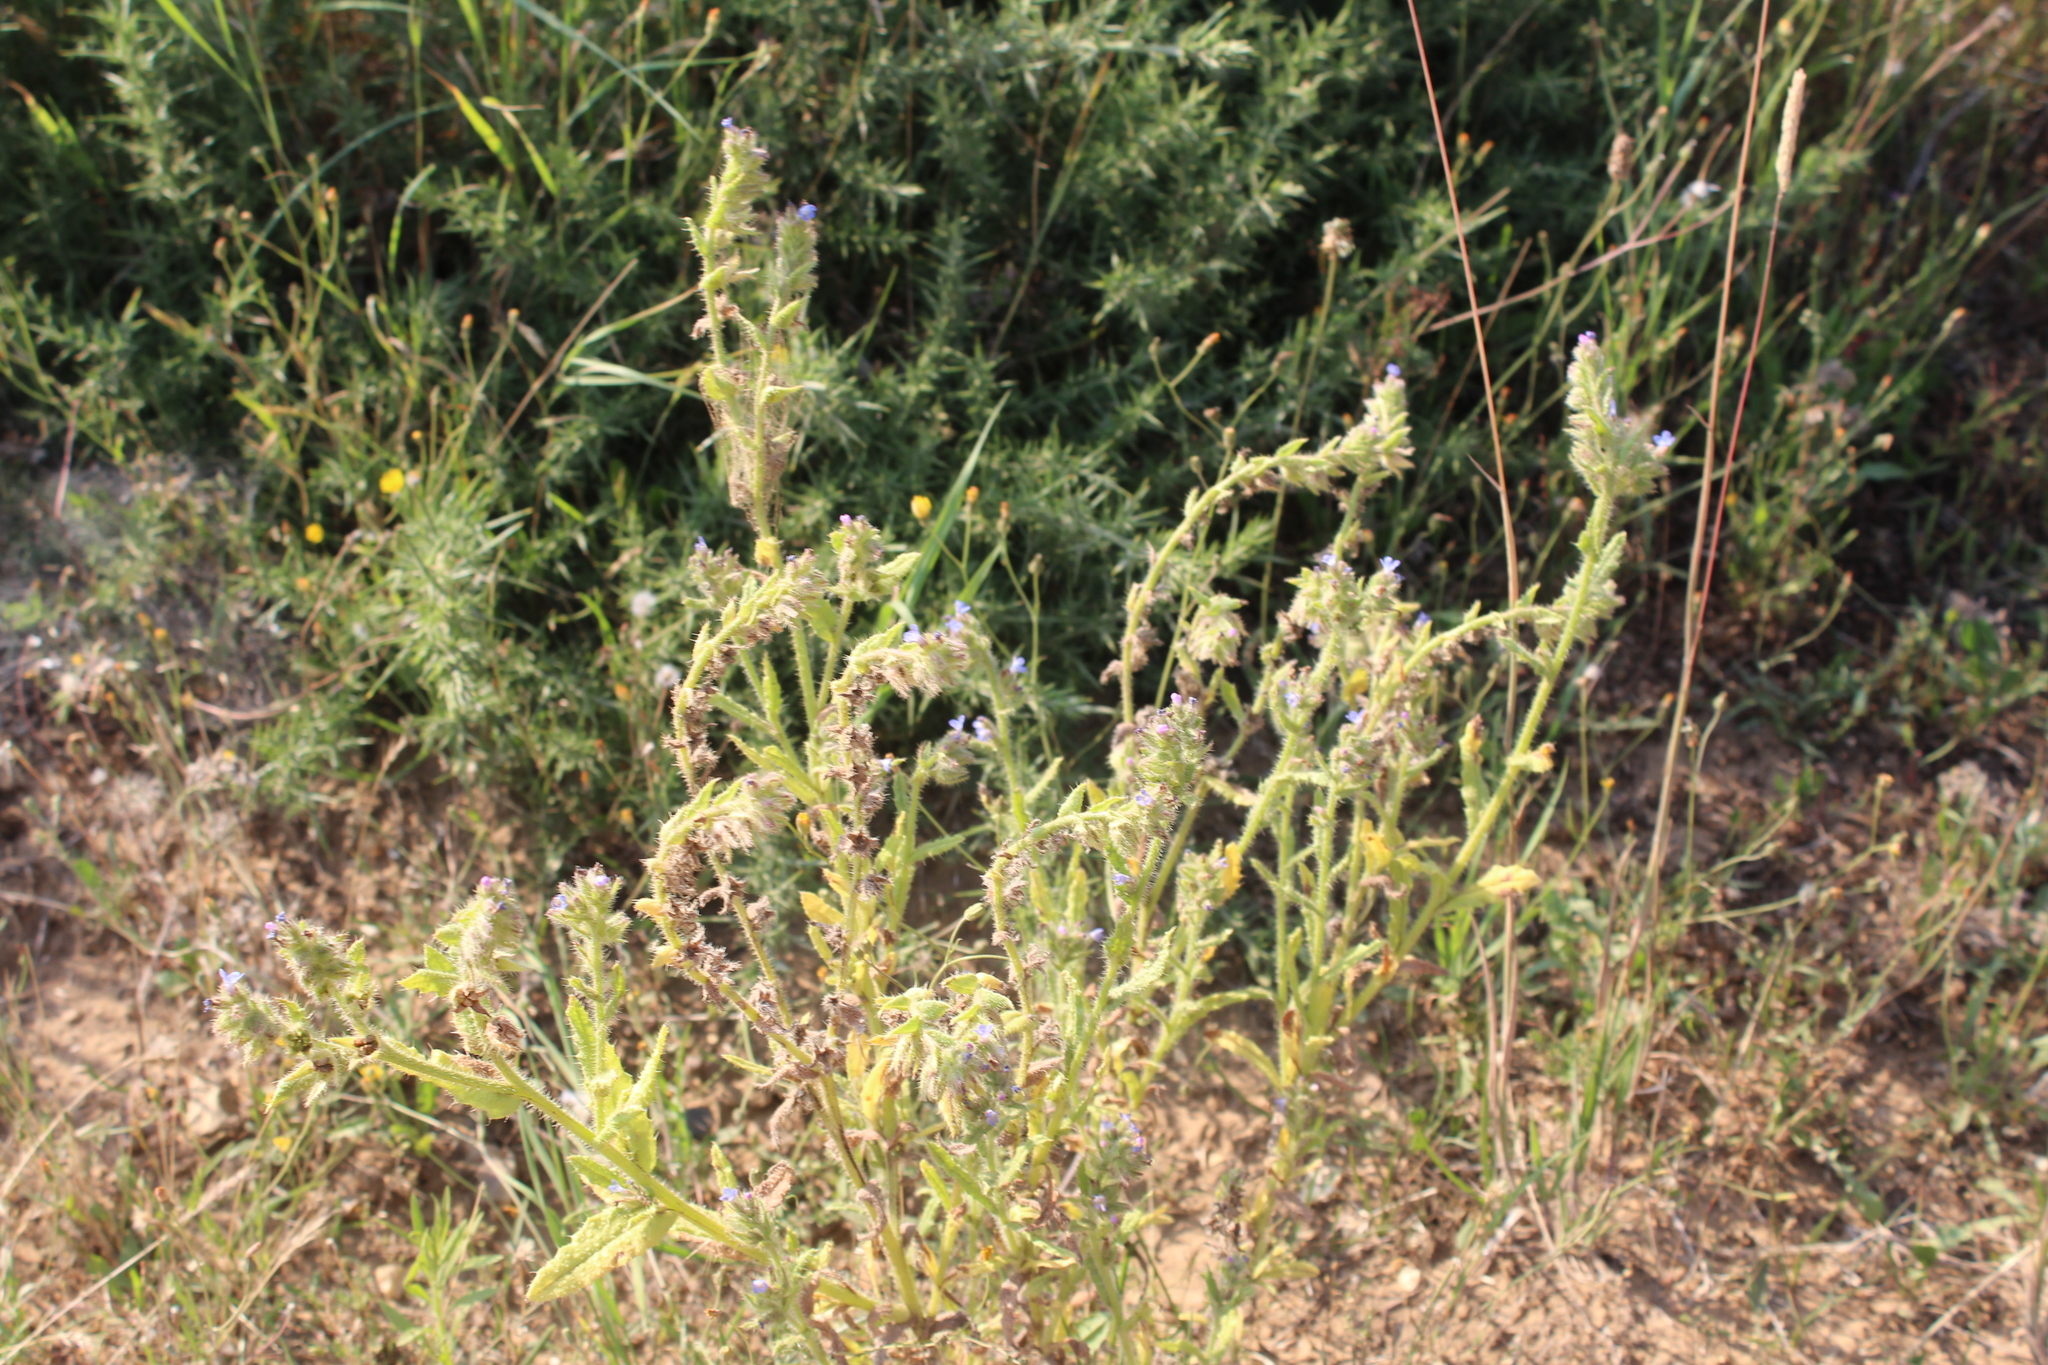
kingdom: Plantae
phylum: Tracheophyta
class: Magnoliopsida
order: Boraginales
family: Boraginaceae
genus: Lycopsis
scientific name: Lycopsis arvensis
